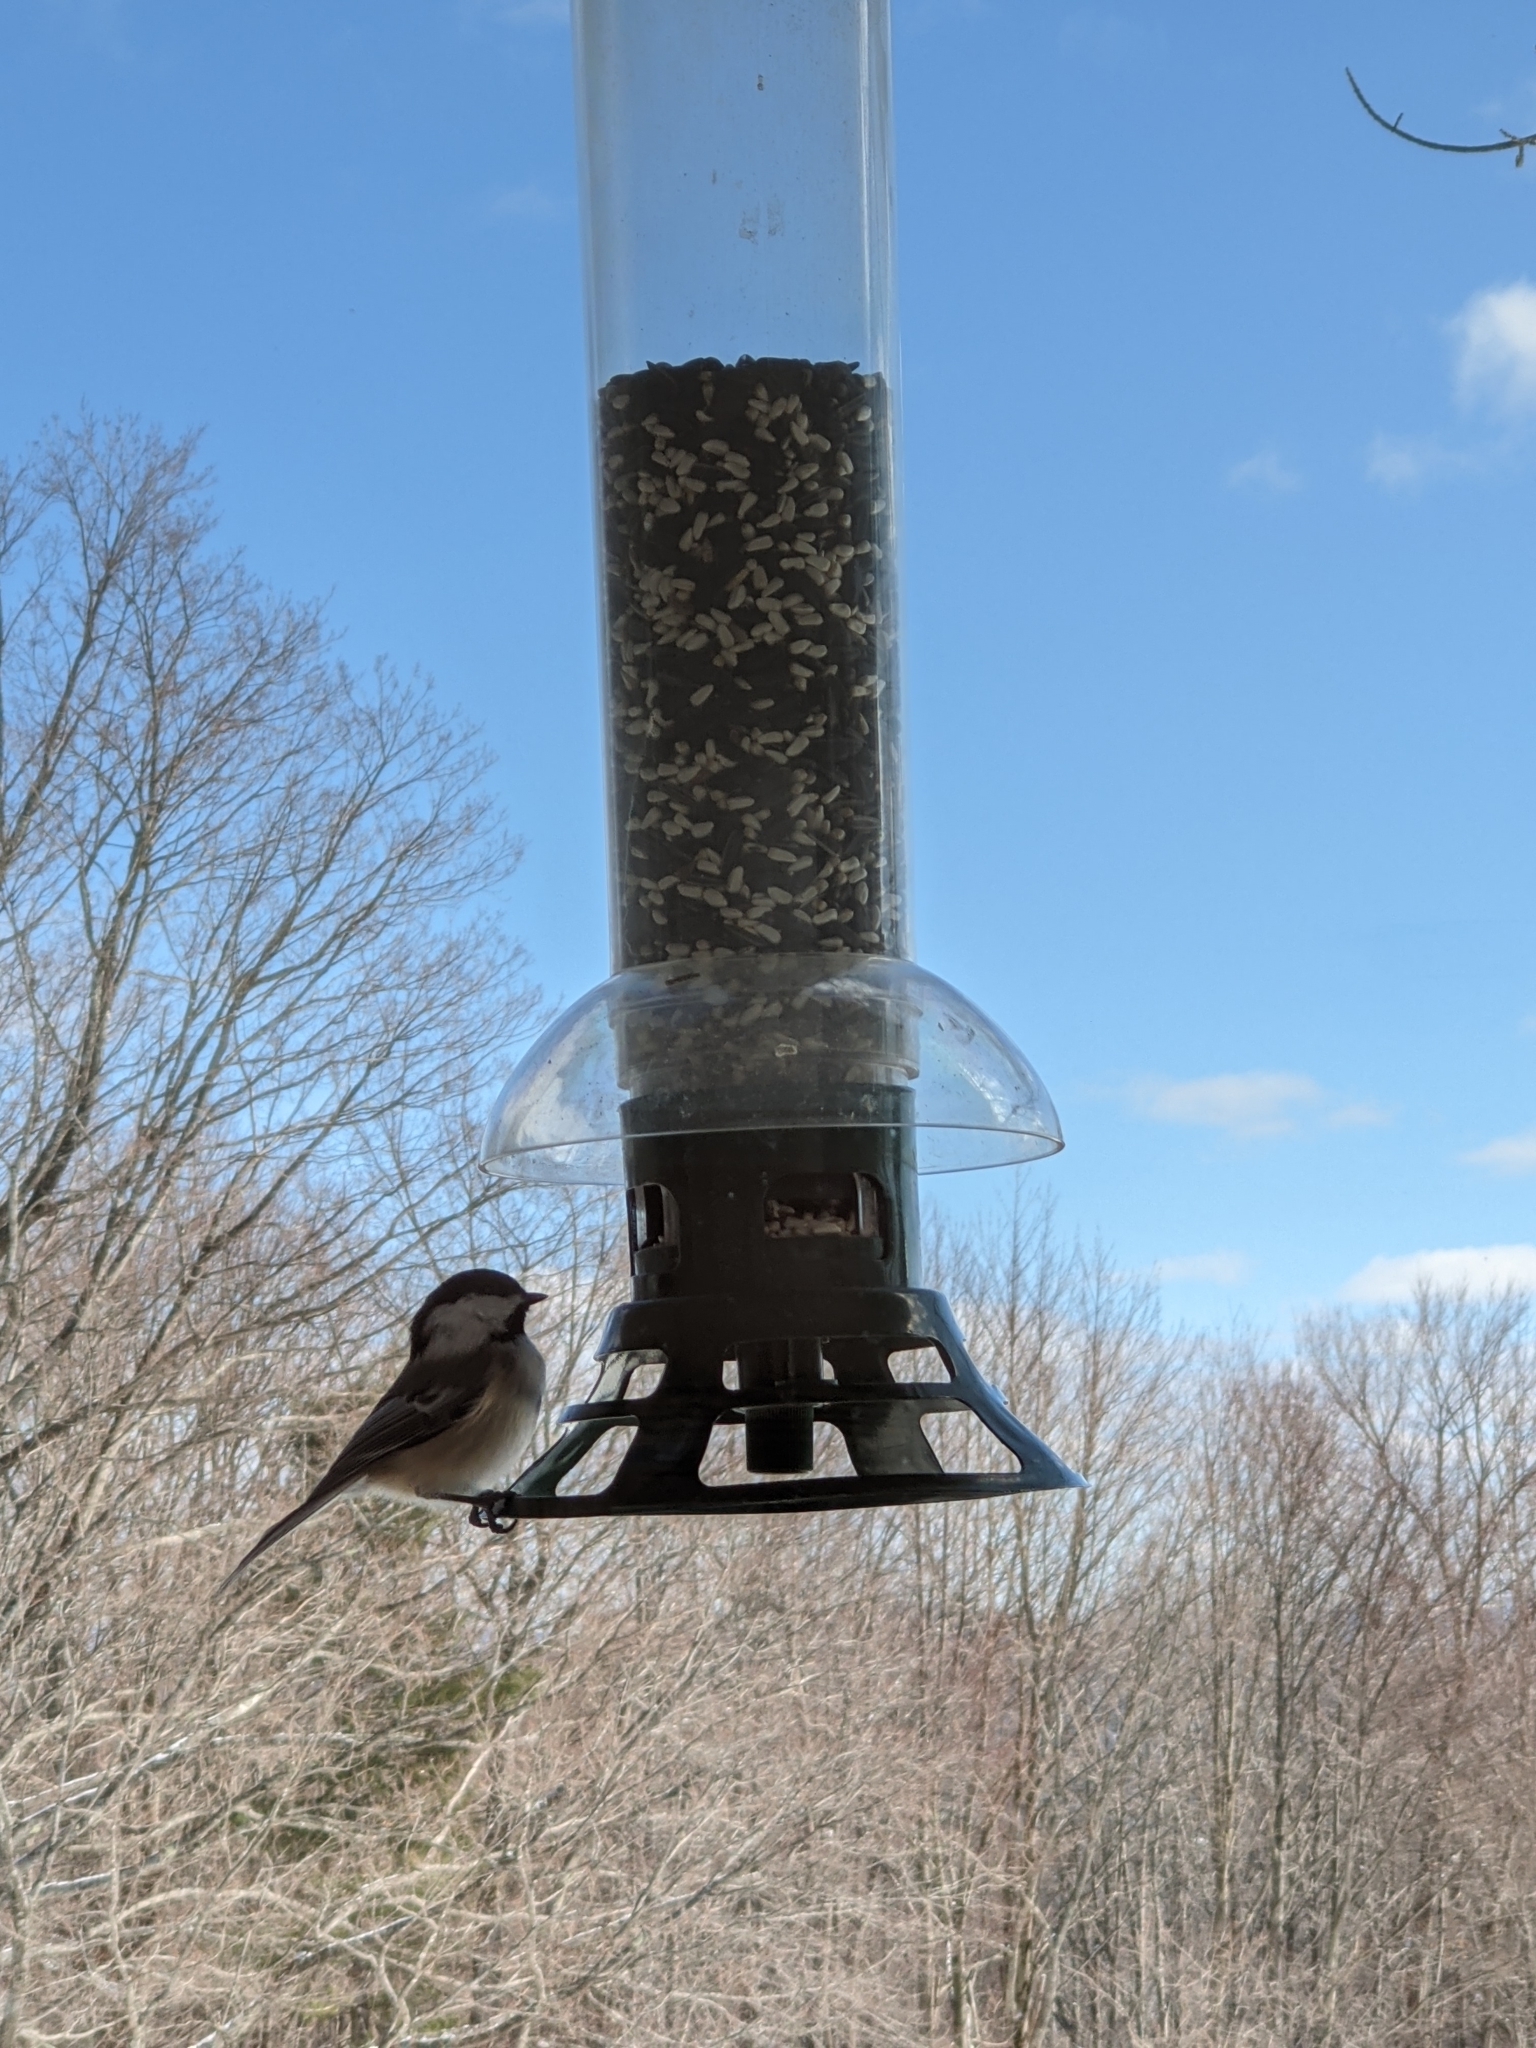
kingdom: Animalia
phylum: Chordata
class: Aves
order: Passeriformes
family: Paridae
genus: Poecile
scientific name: Poecile atricapillus
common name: Black-capped chickadee
